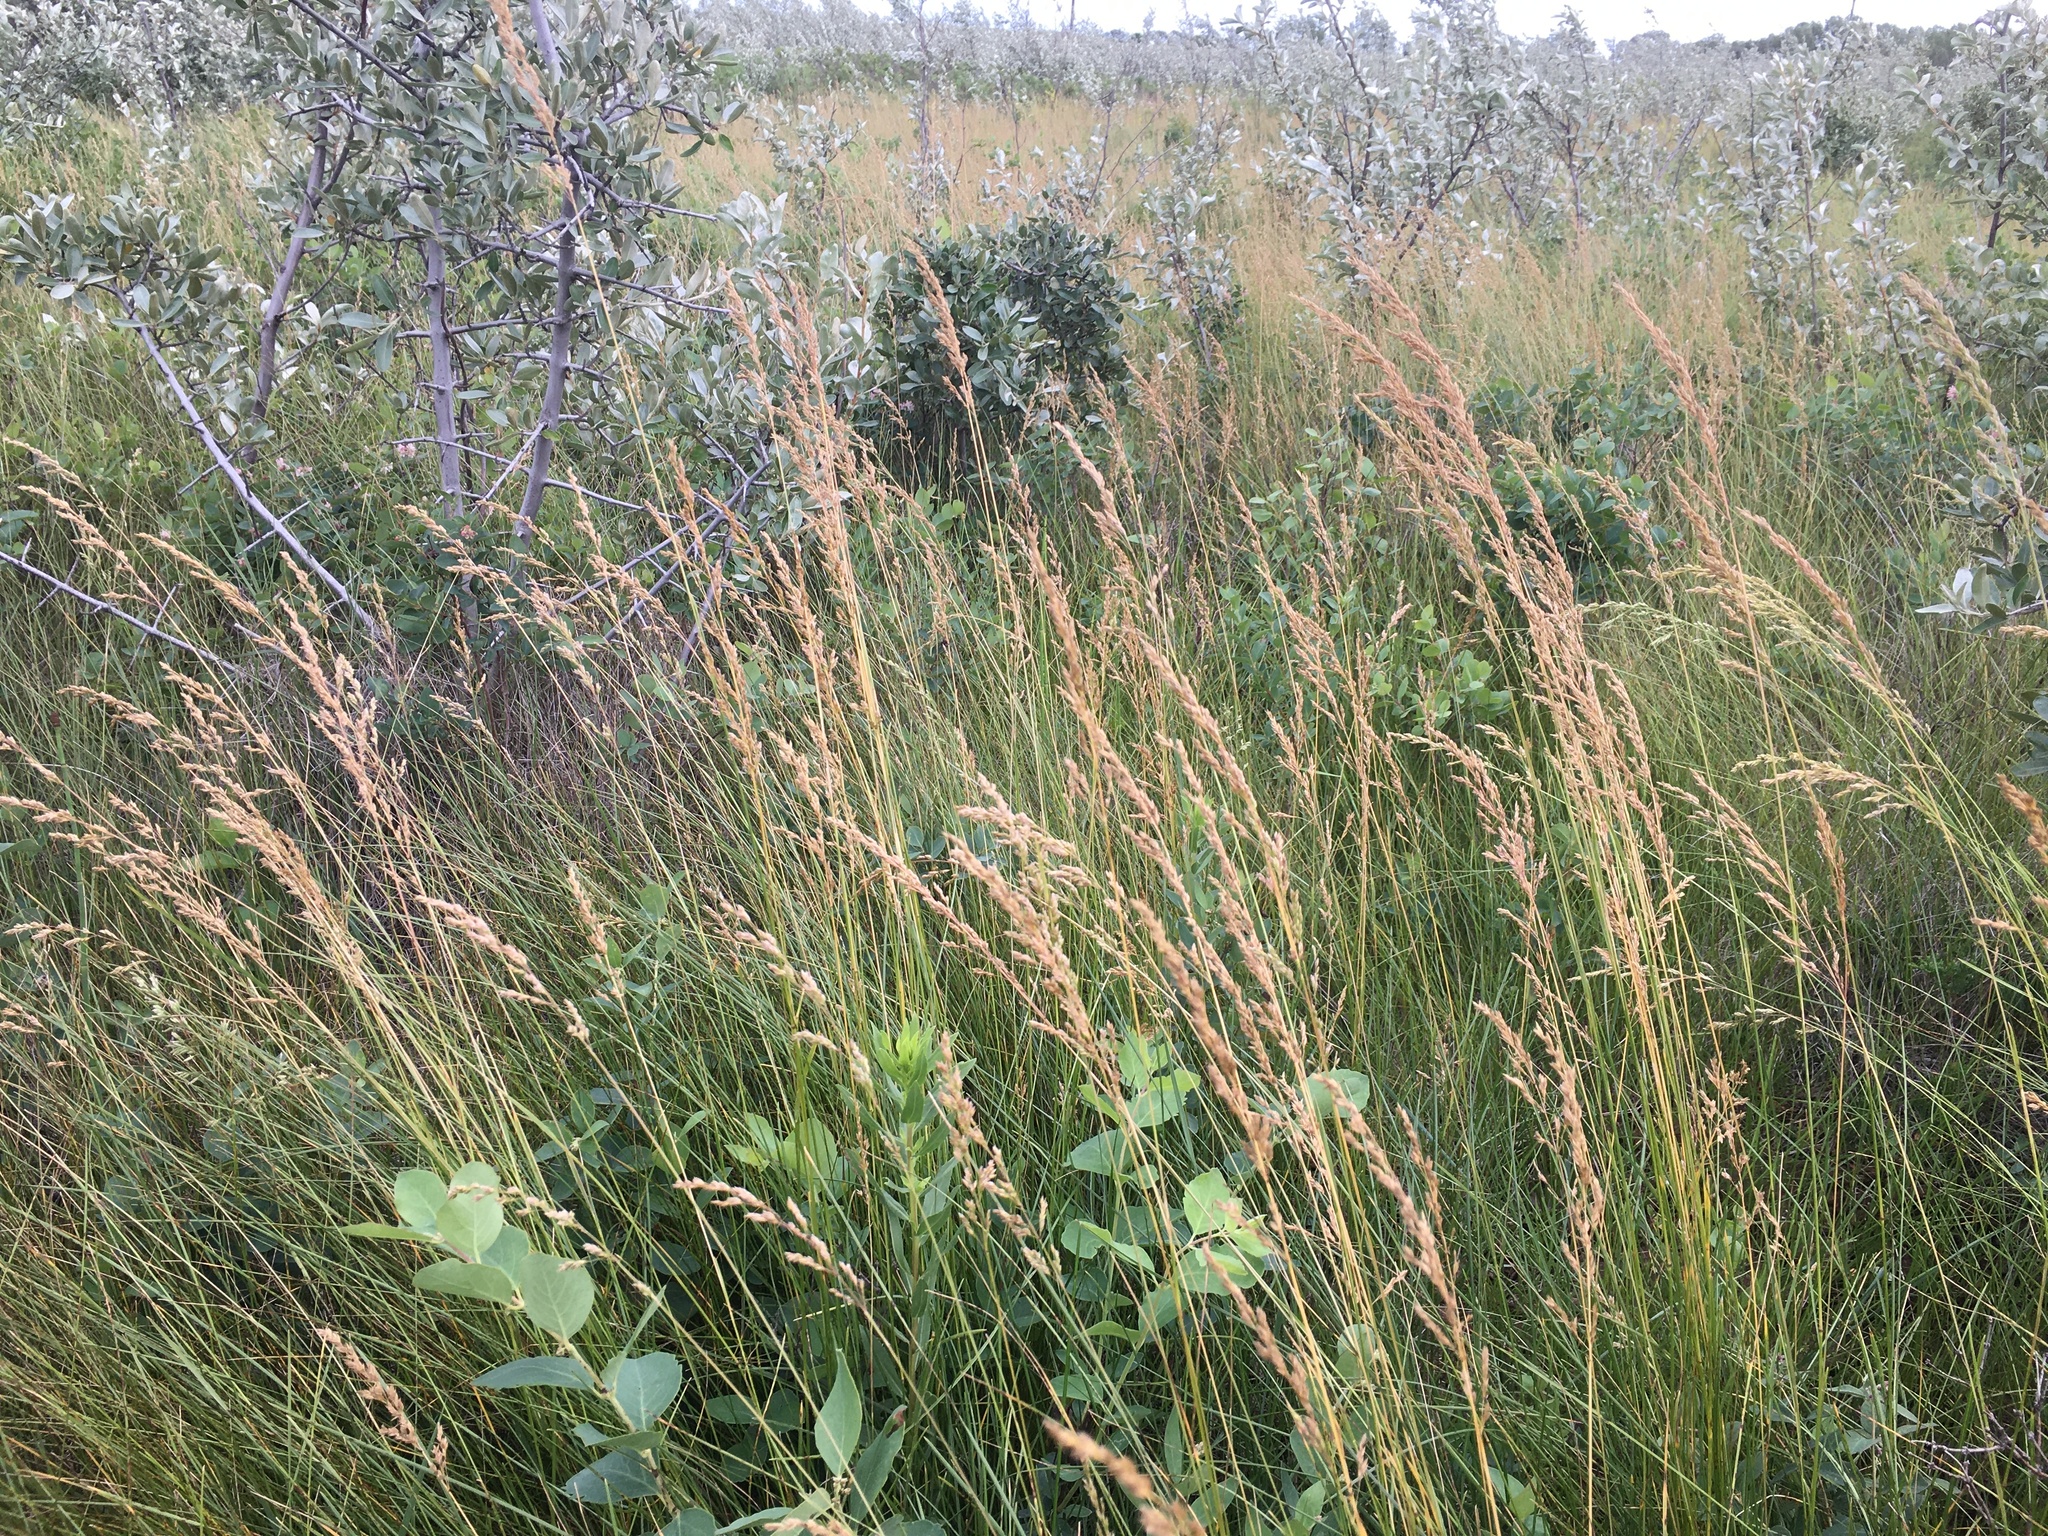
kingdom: Plantae
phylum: Tracheophyta
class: Liliopsida
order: Poales
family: Poaceae
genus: Poa
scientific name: Poa pratensis
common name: Kentucky bluegrass
